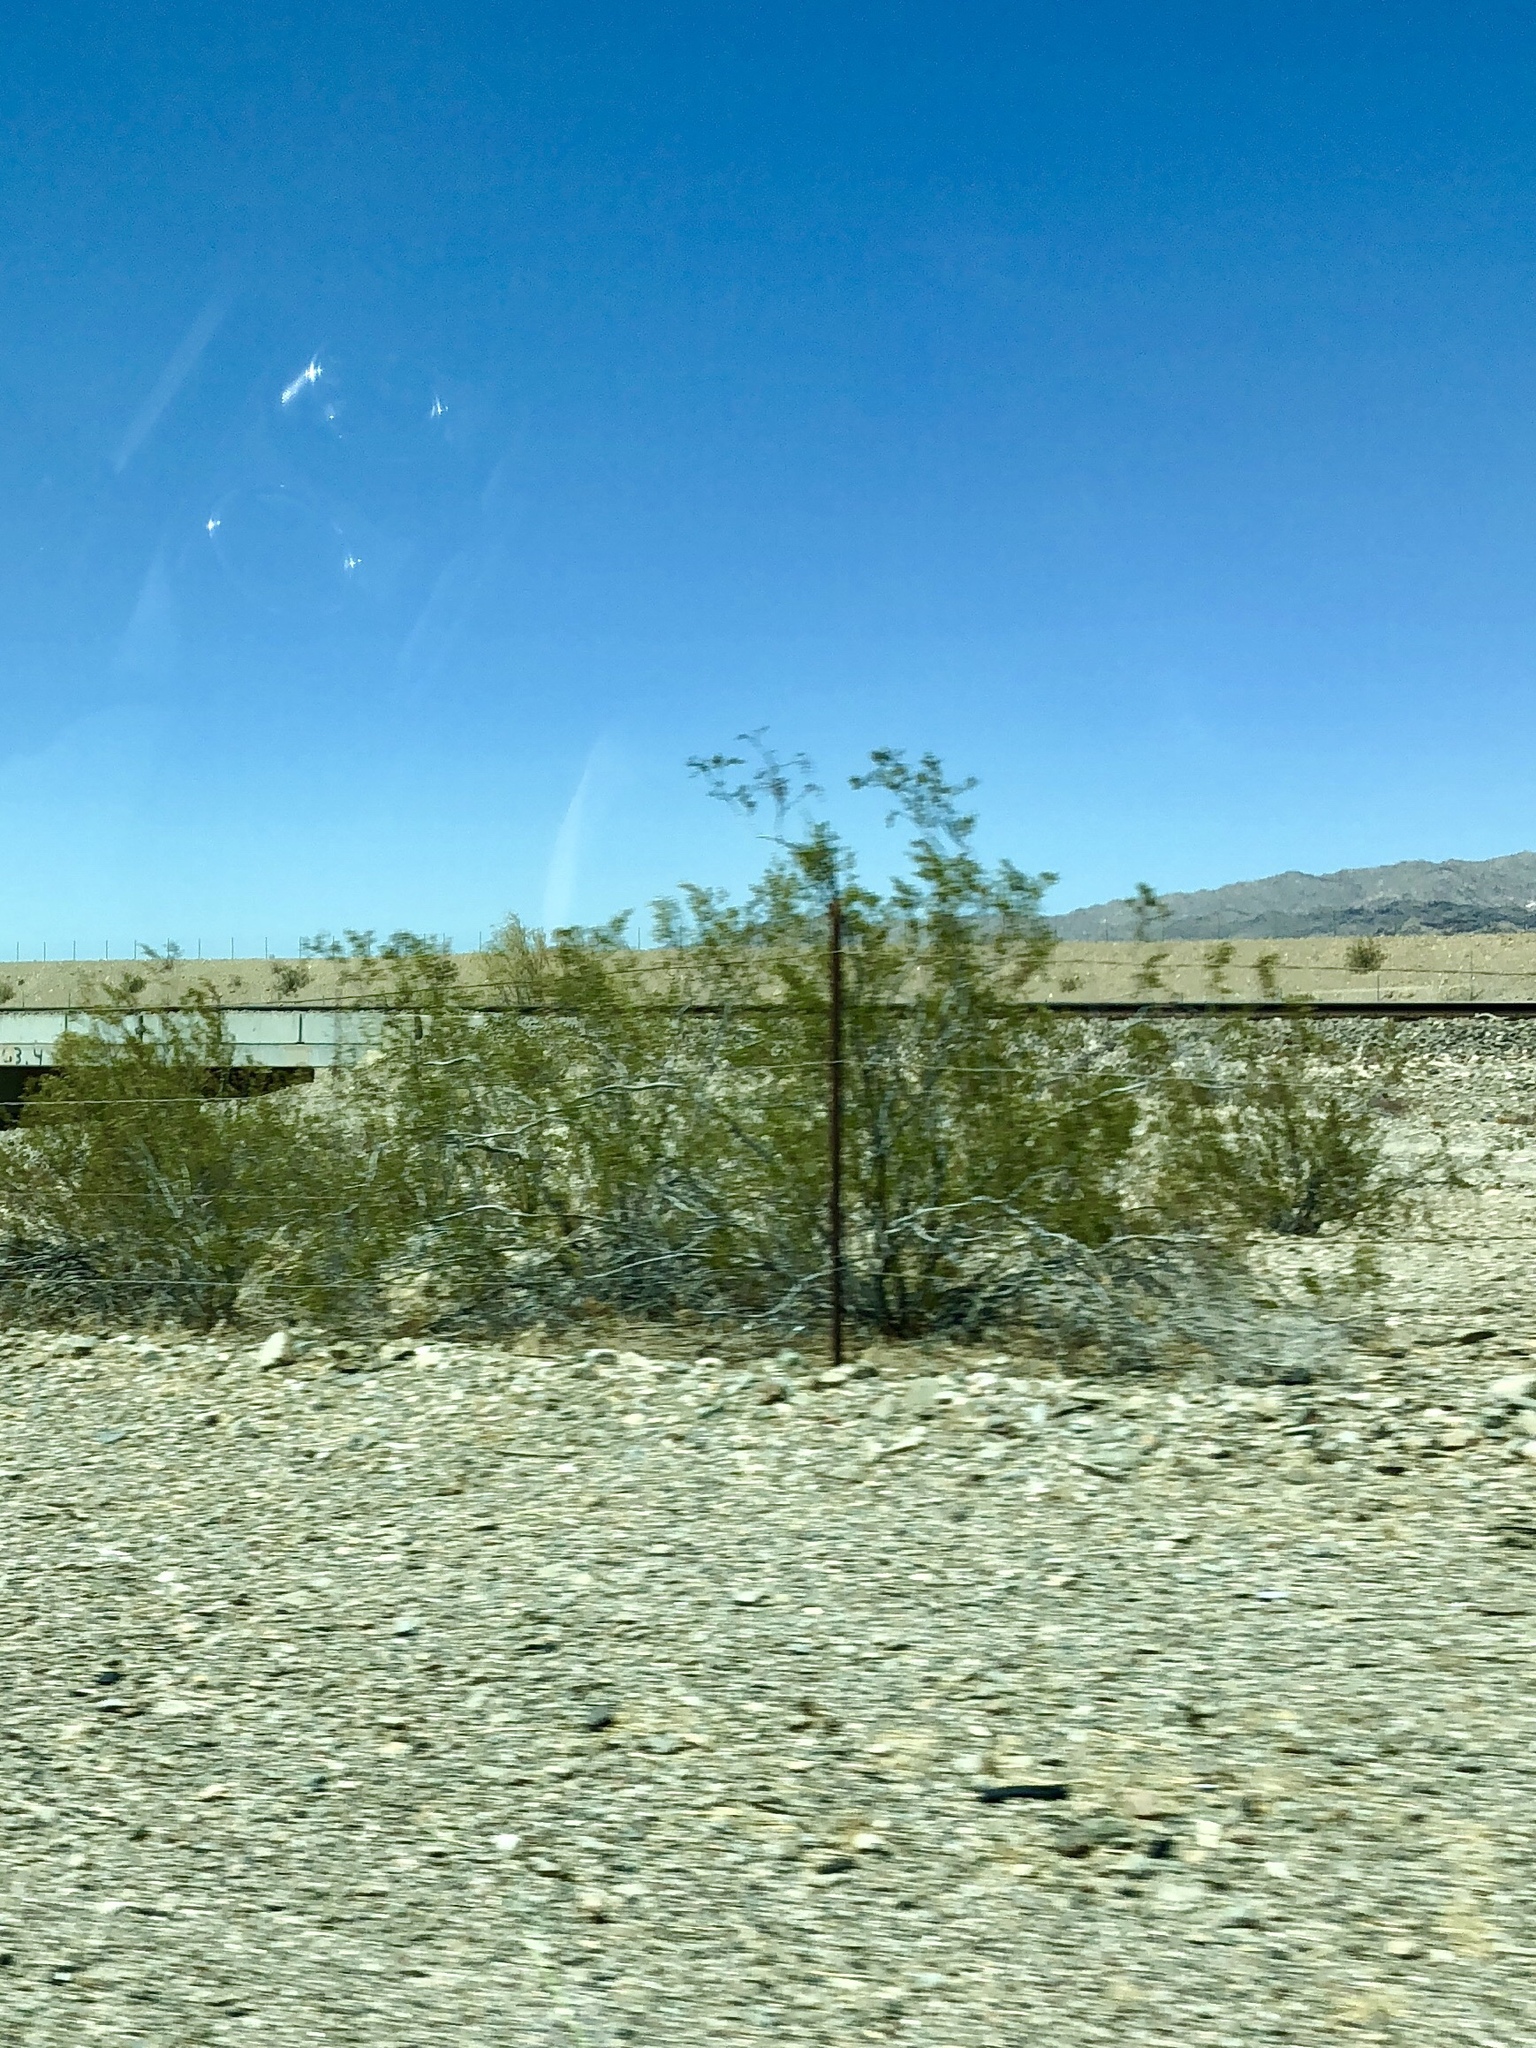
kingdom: Plantae
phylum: Tracheophyta
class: Magnoliopsida
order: Zygophyllales
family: Zygophyllaceae
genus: Larrea
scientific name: Larrea tridentata
